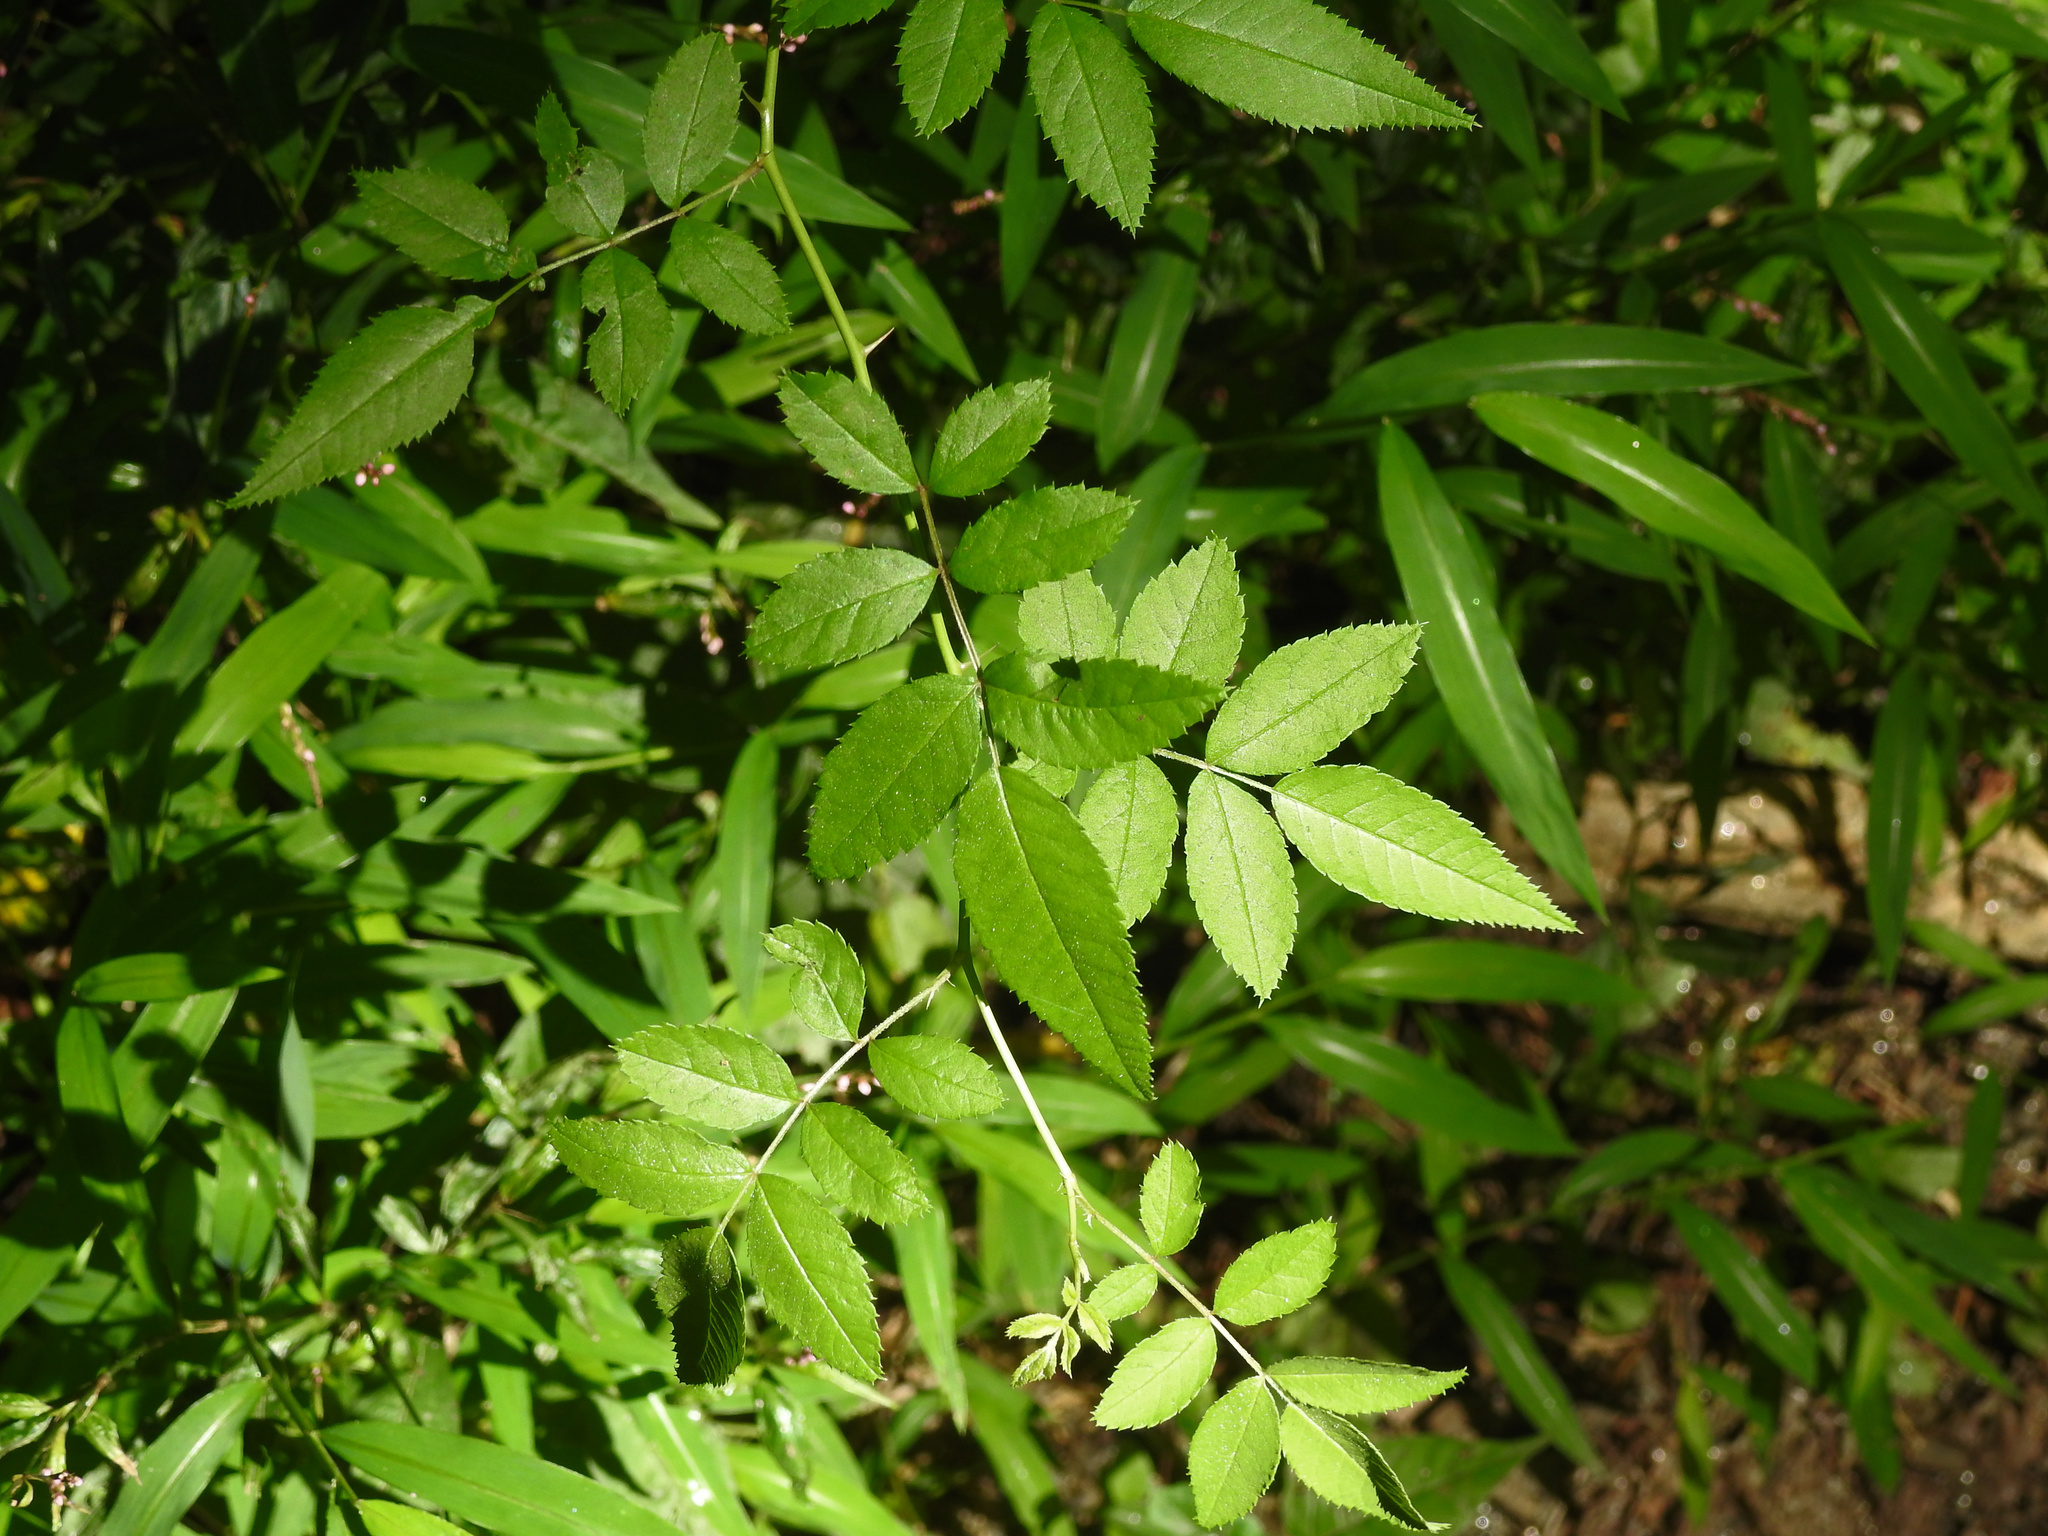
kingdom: Plantae
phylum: Tracheophyta
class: Magnoliopsida
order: Rosales
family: Rosaceae
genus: Rosa
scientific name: Rosa multiflora
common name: Multiflora rose
